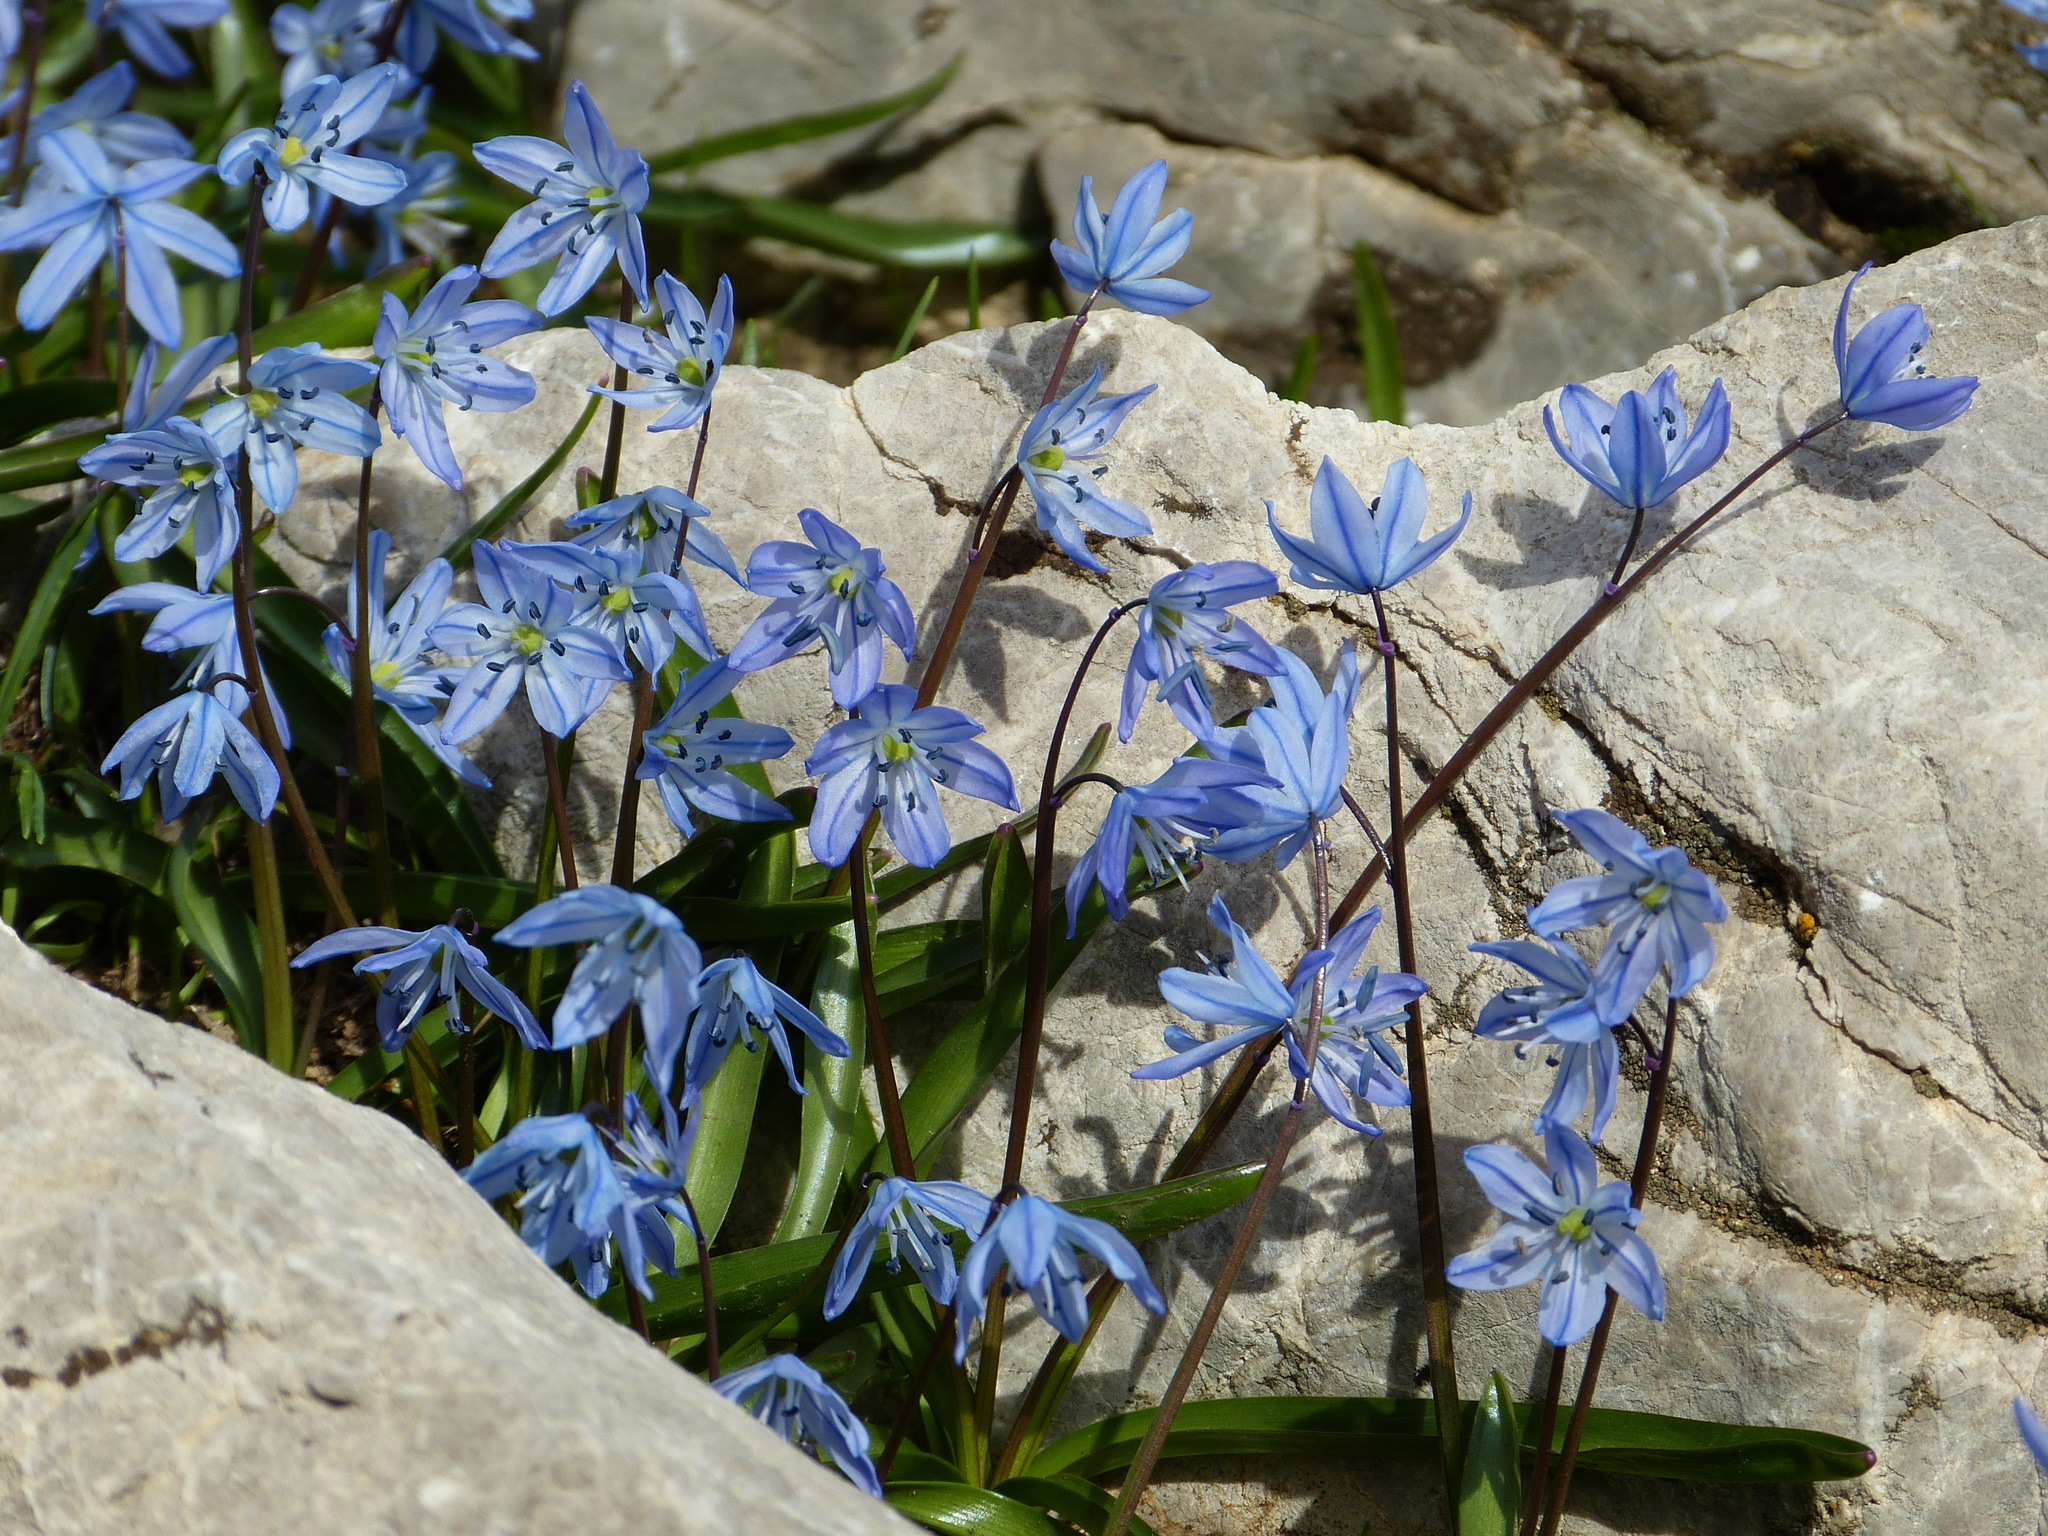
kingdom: Plantae
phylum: Tracheophyta
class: Liliopsida
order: Asparagales
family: Asparagaceae
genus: Scilla
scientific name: Scilla ingridiae
